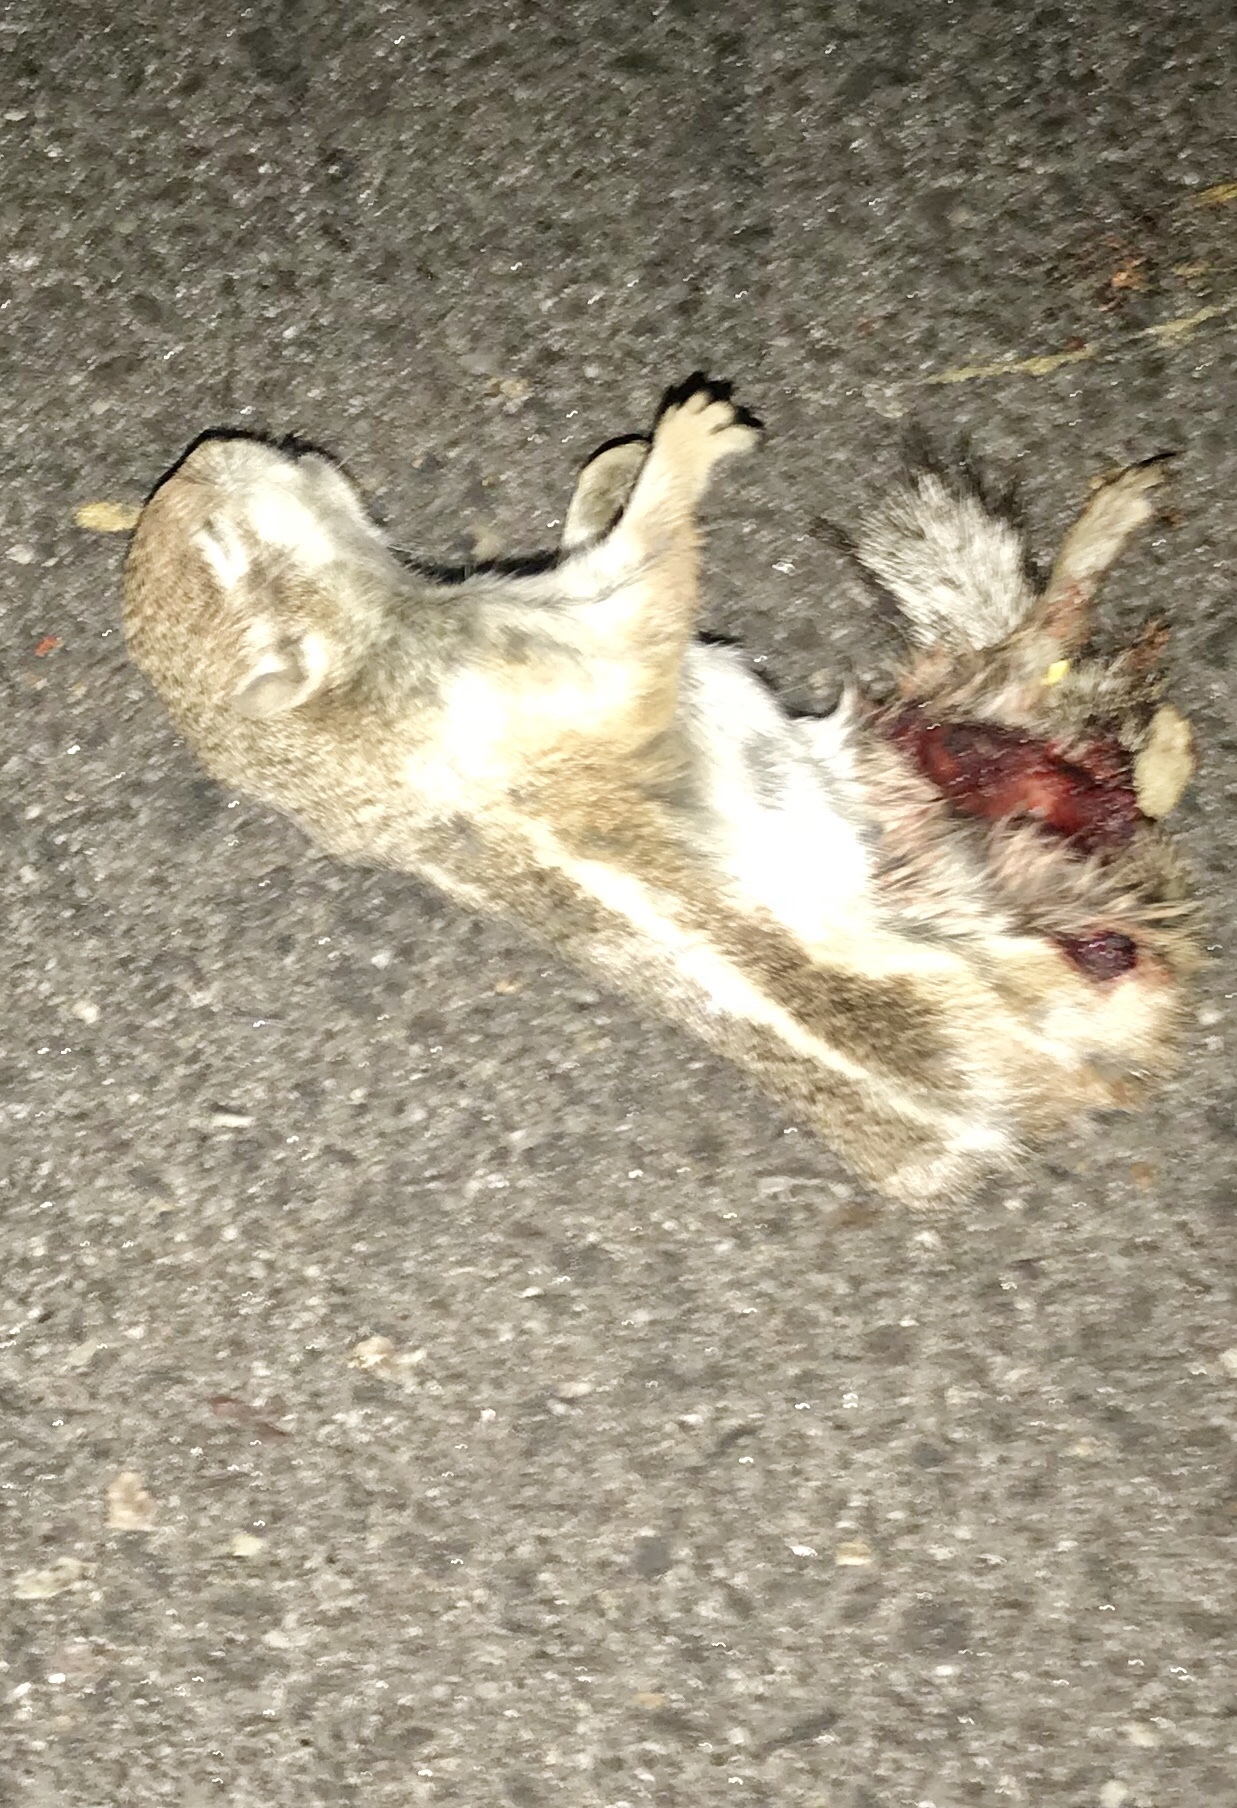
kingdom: Animalia
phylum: Chordata
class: Mammalia
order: Rodentia
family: Sciuridae
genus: Ammospermophilus
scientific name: Ammospermophilus harrisii
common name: Harris's antelope squirrel
